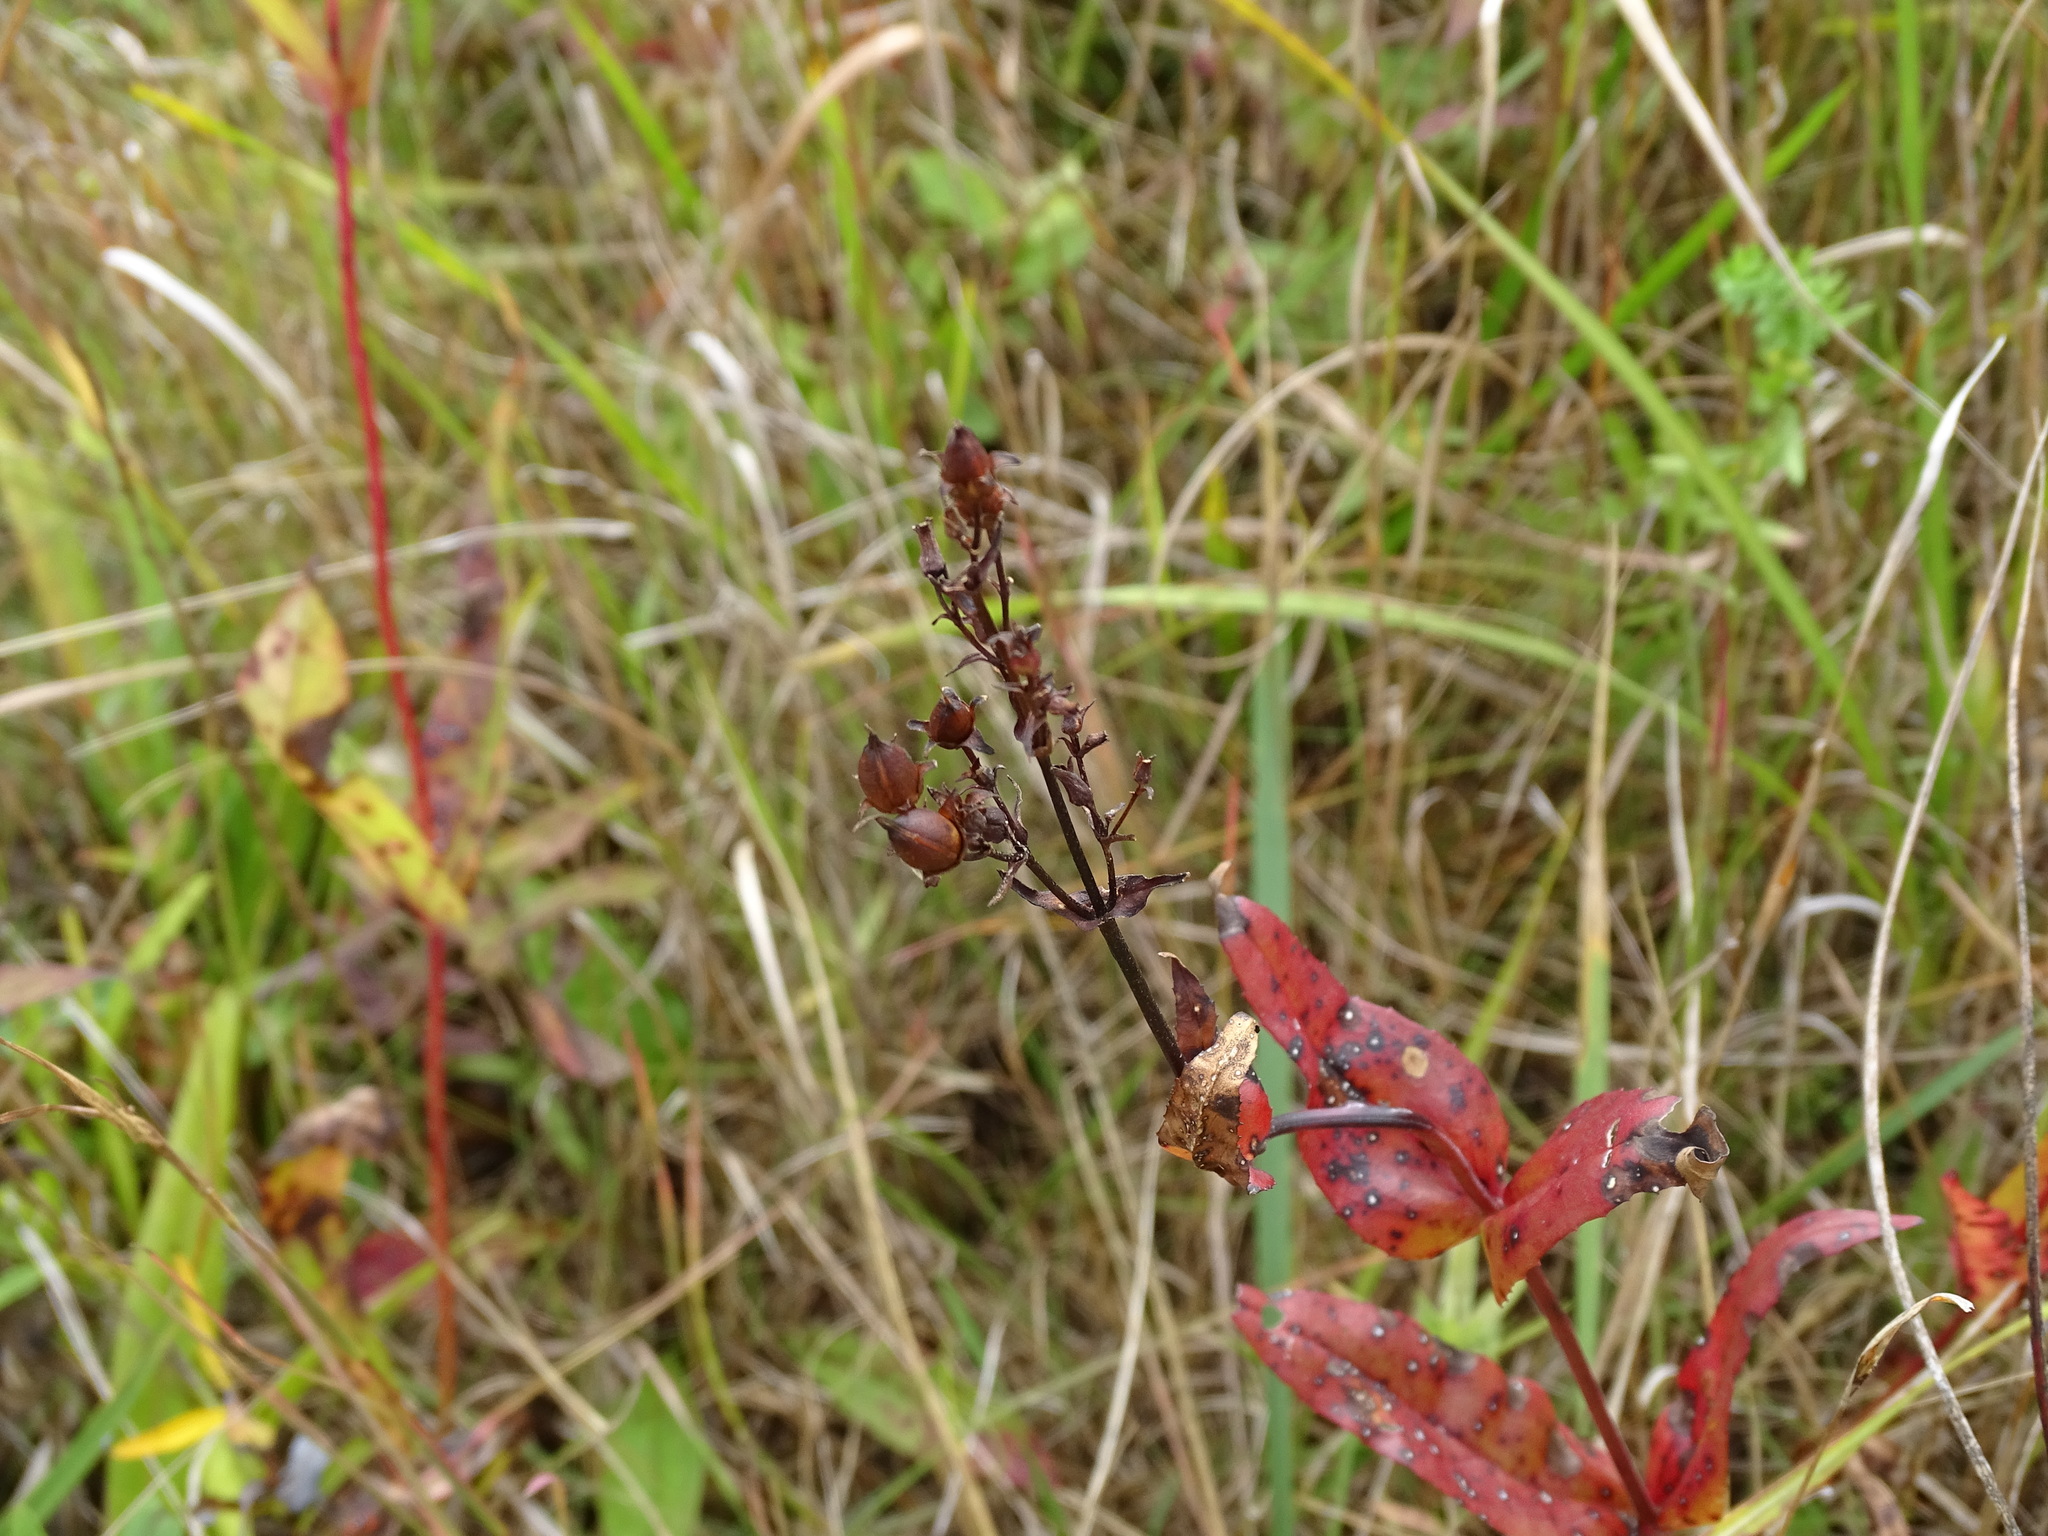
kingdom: Plantae
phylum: Tracheophyta
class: Magnoliopsida
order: Lamiales
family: Plantaginaceae
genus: Penstemon
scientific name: Penstemon digitalis
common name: Foxglove beardtongue
